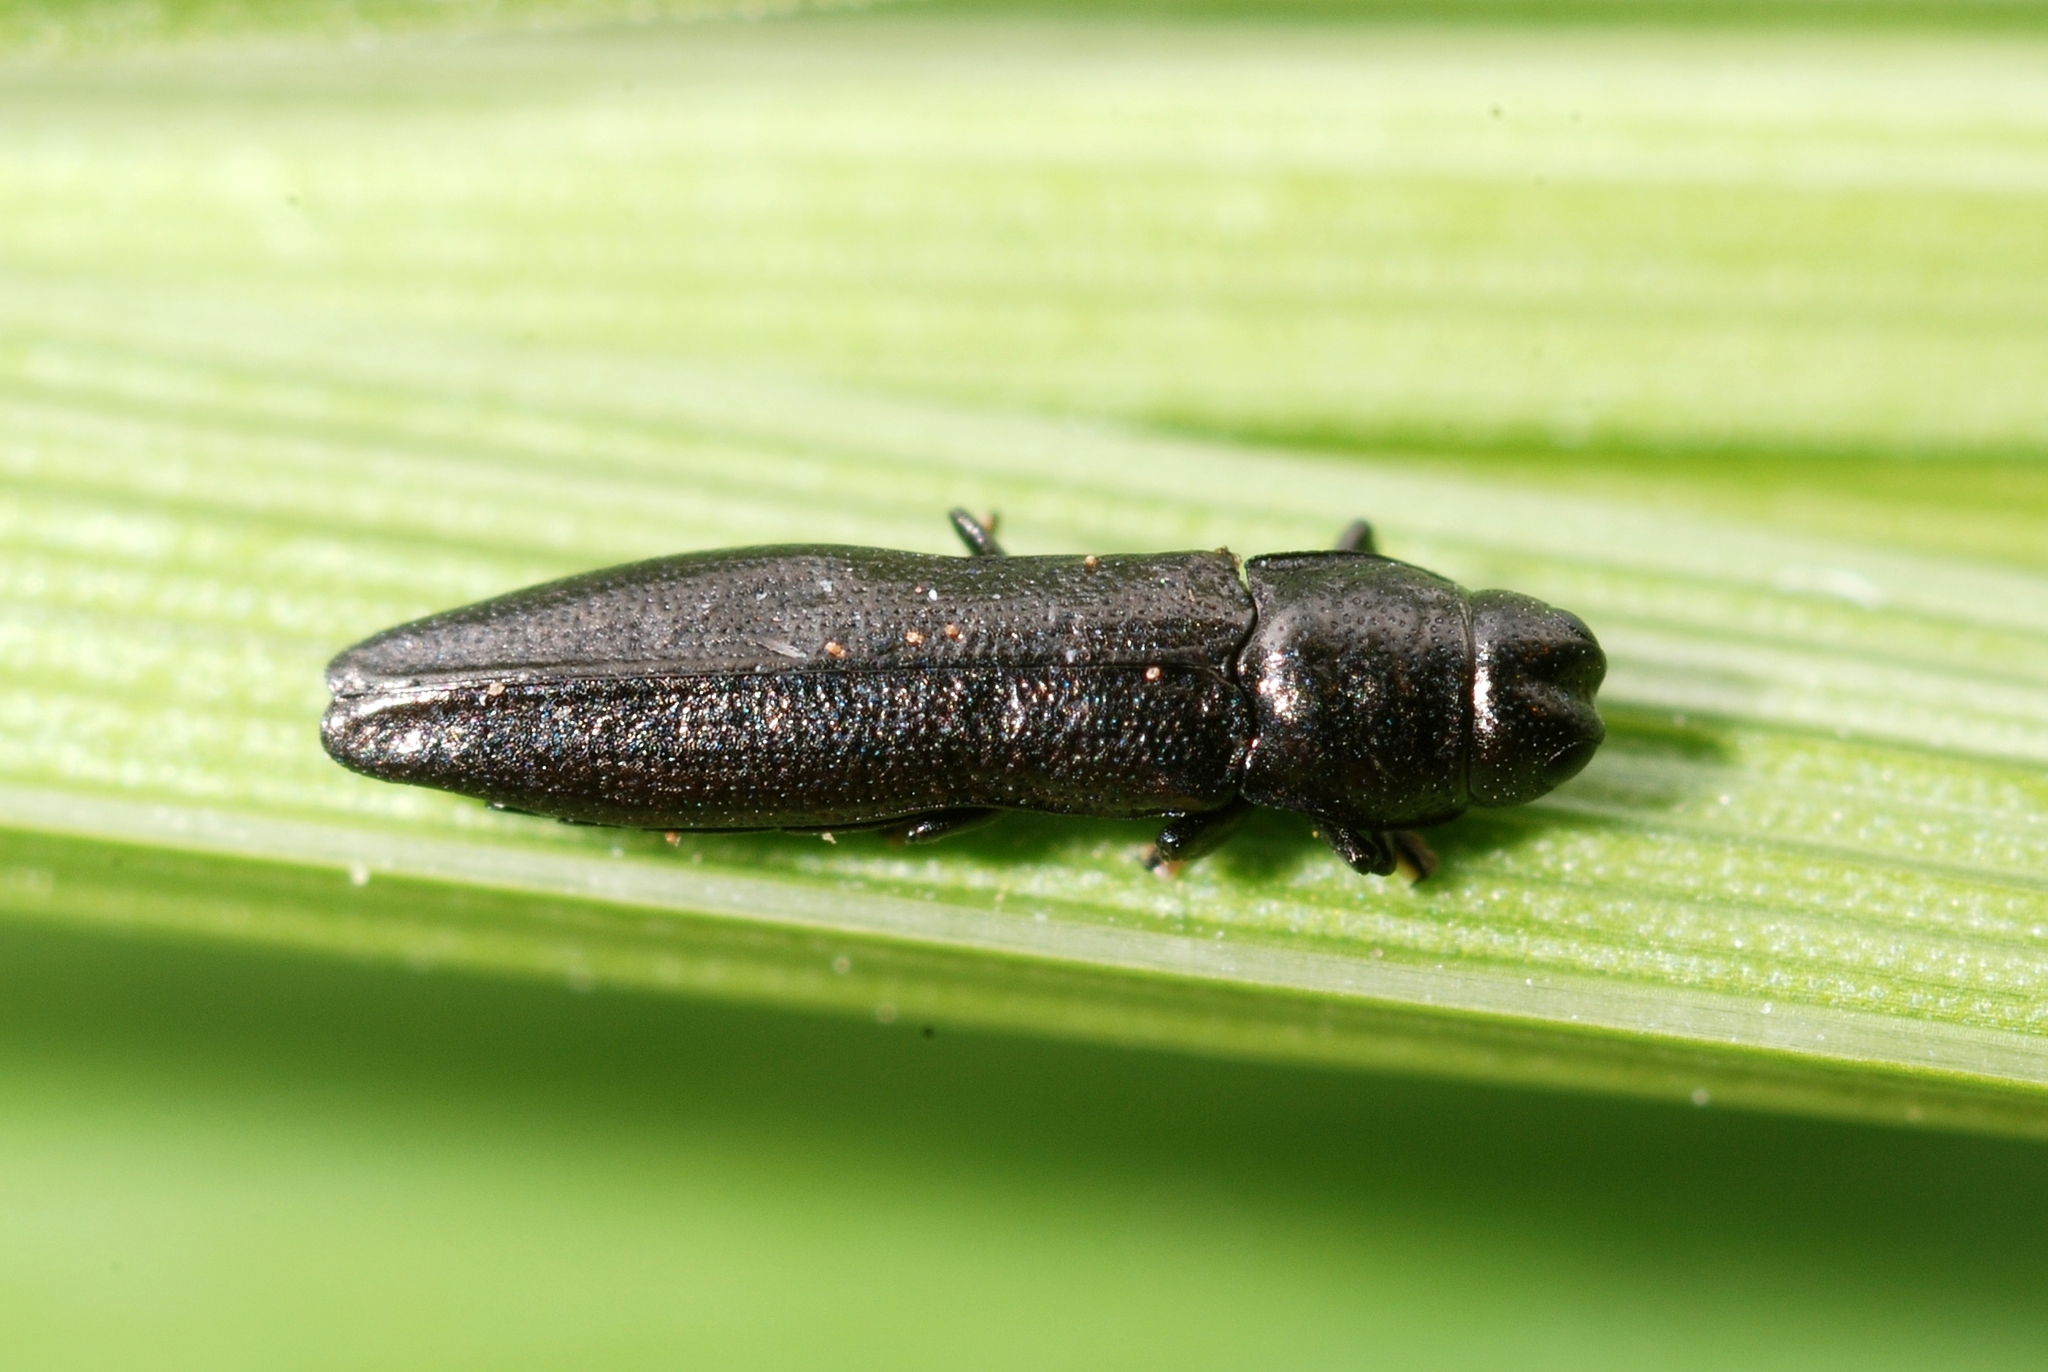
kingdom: Animalia
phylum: Arthropoda
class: Insecta
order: Coleoptera
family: Buprestidae
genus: Aphanisticus
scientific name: Aphanisticus elongatus
